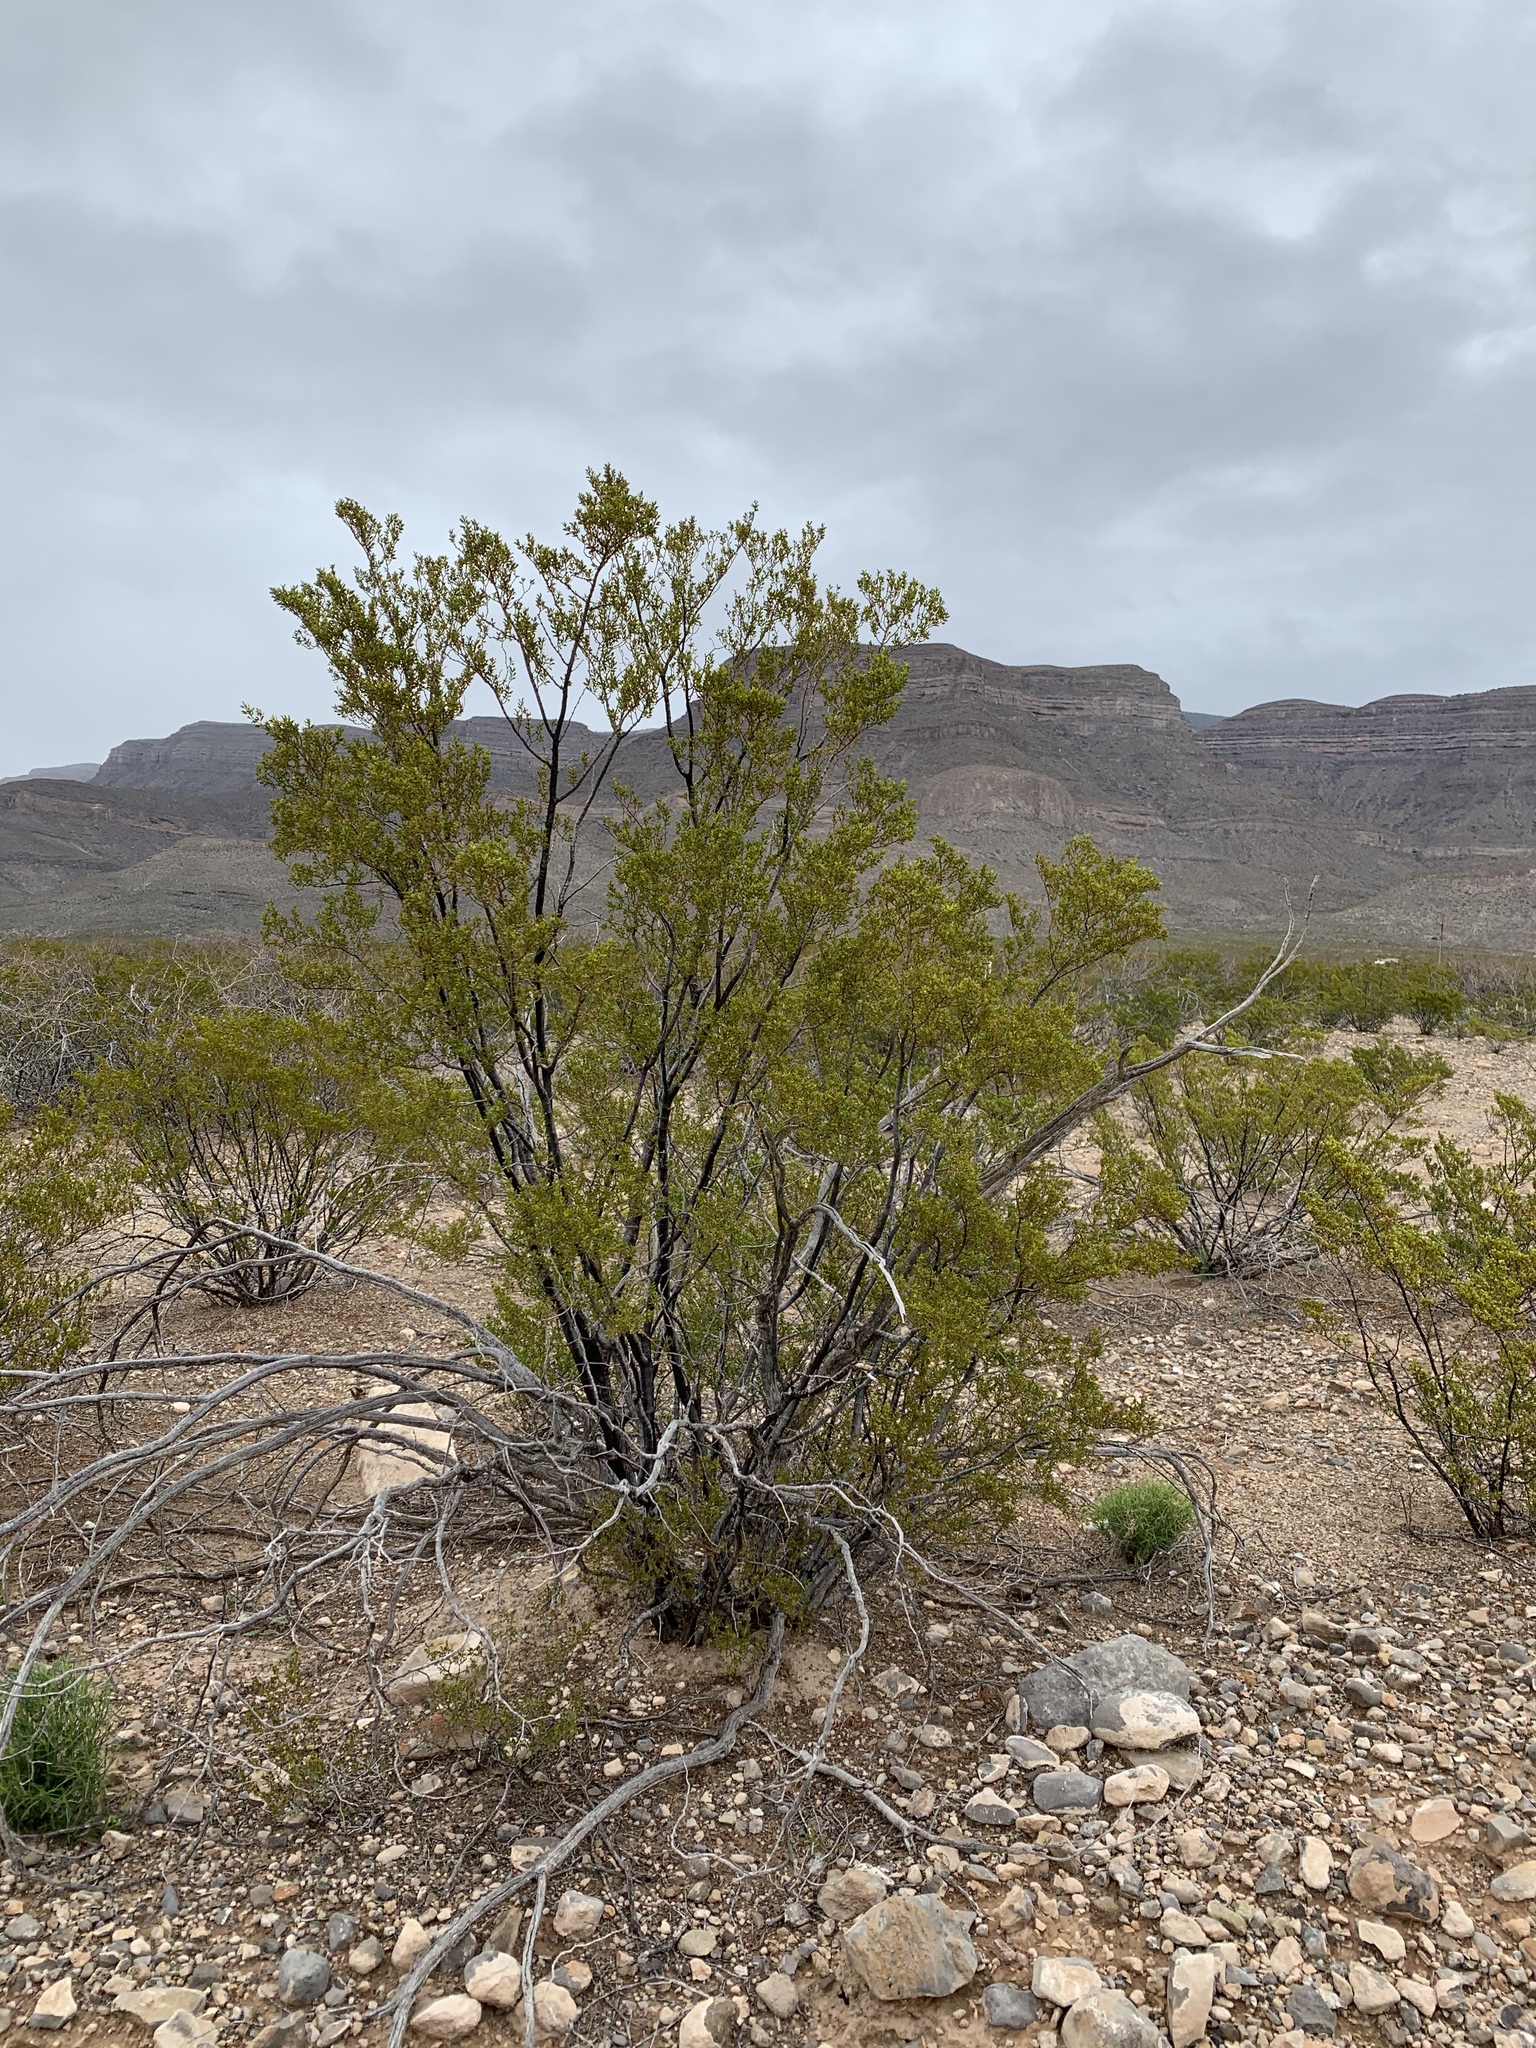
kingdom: Plantae
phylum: Tracheophyta
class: Magnoliopsida
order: Zygophyllales
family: Zygophyllaceae
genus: Larrea
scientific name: Larrea tridentata
